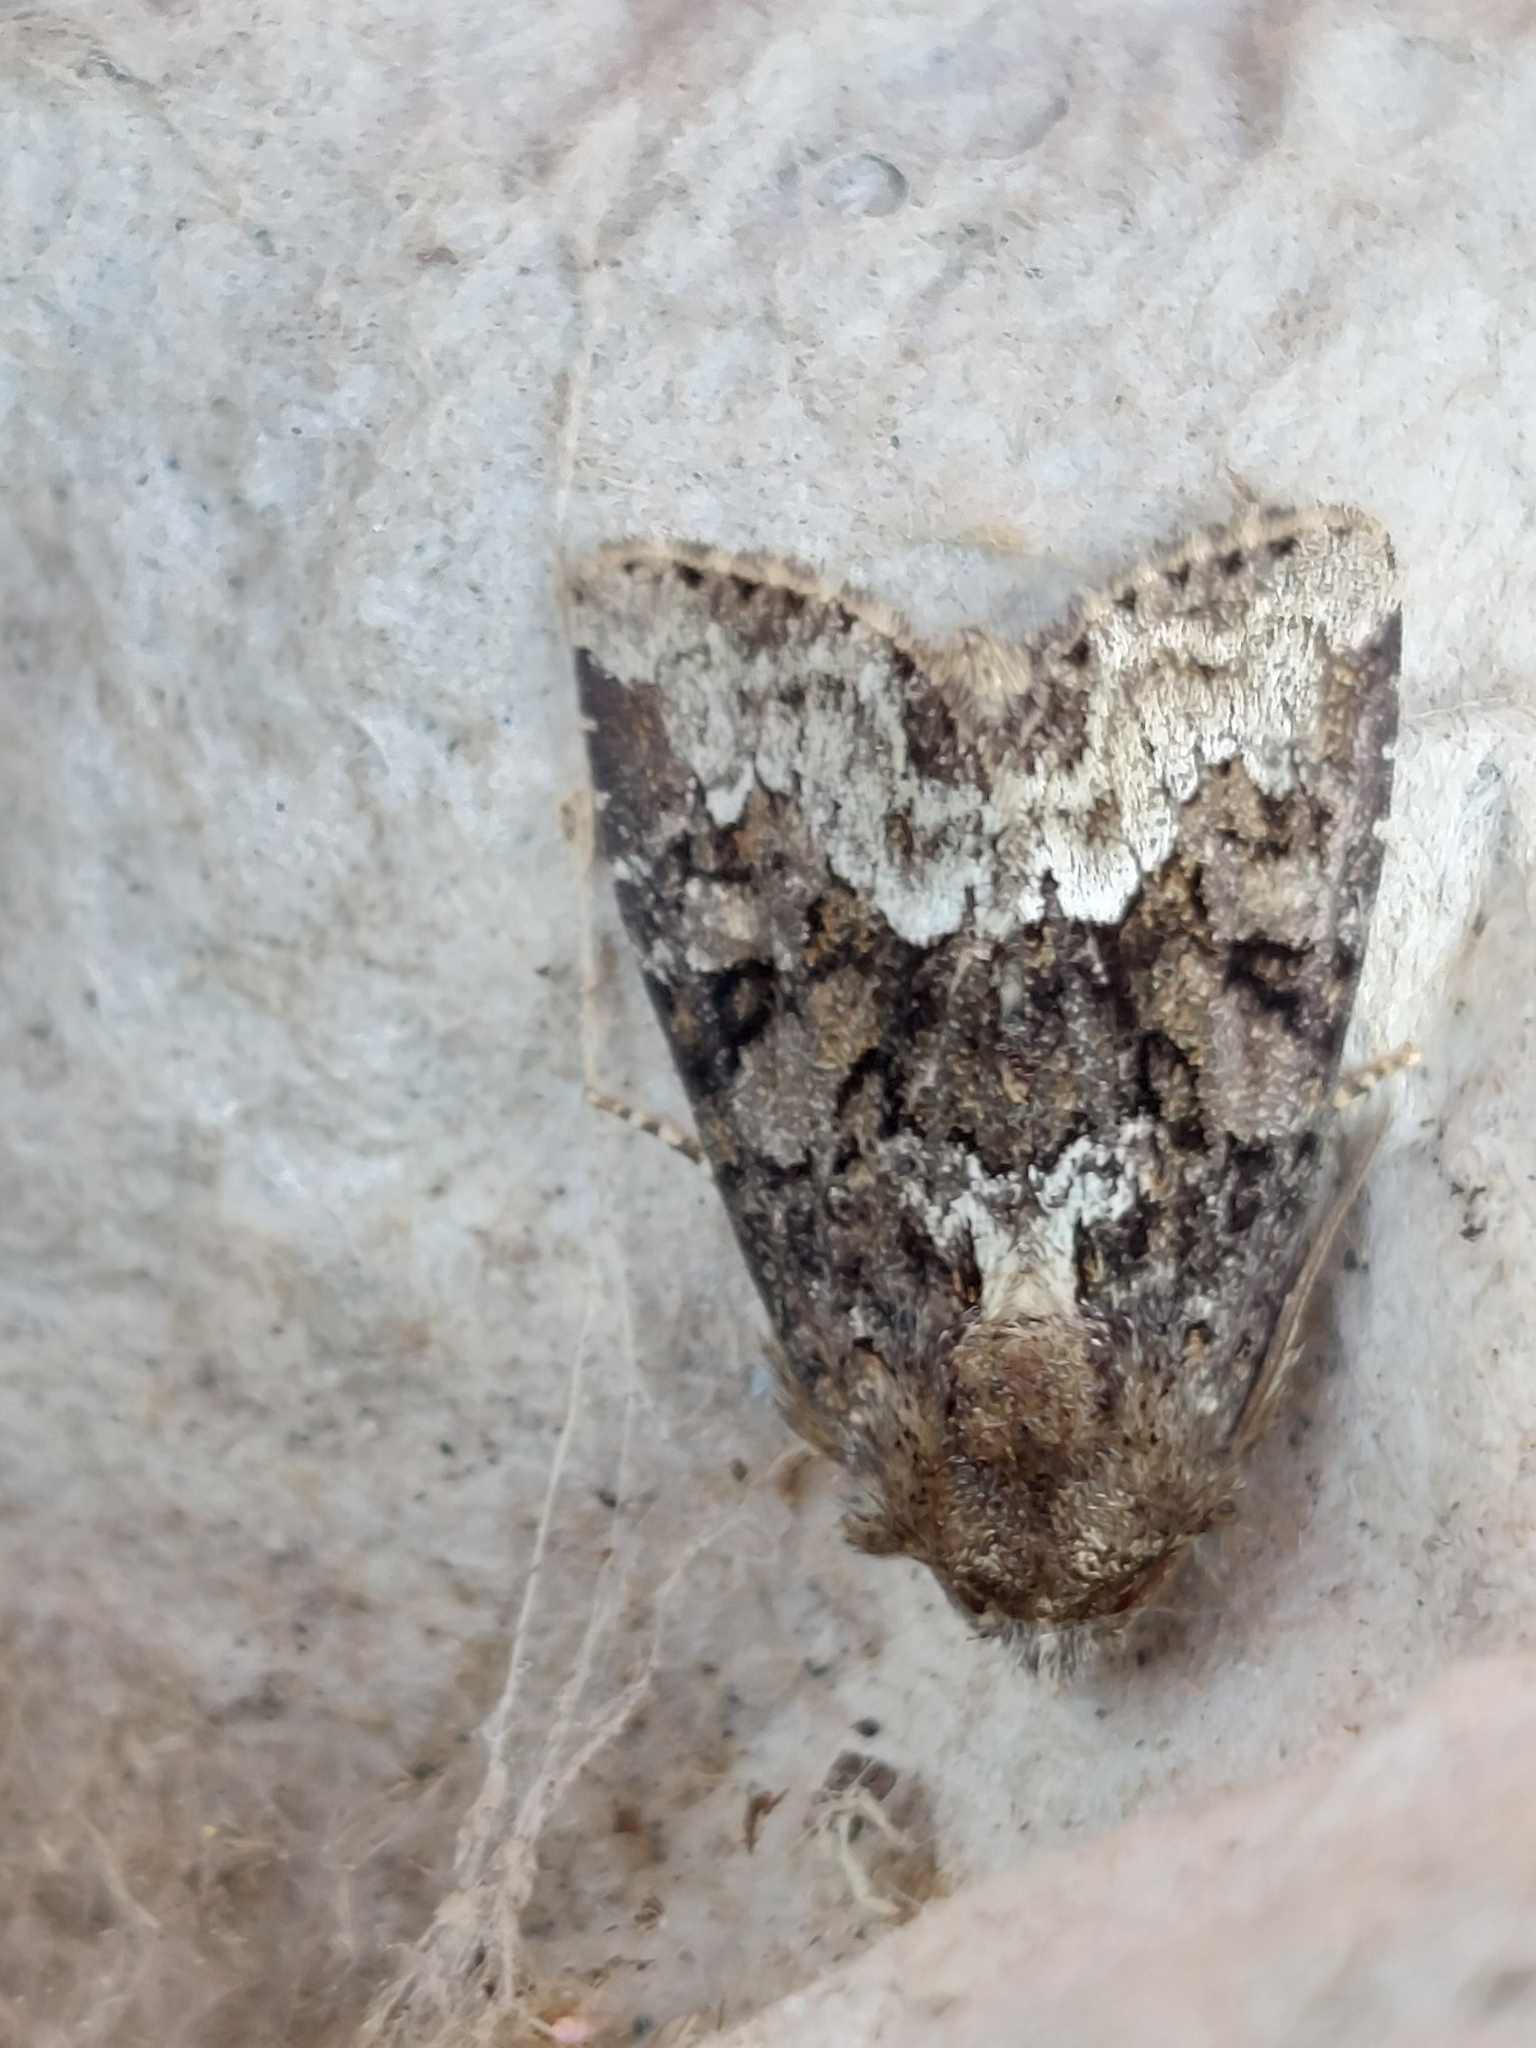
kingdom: Animalia
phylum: Arthropoda
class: Insecta
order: Lepidoptera
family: Noctuidae
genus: Oligia
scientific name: Oligia strigilis
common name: Marbled minor
